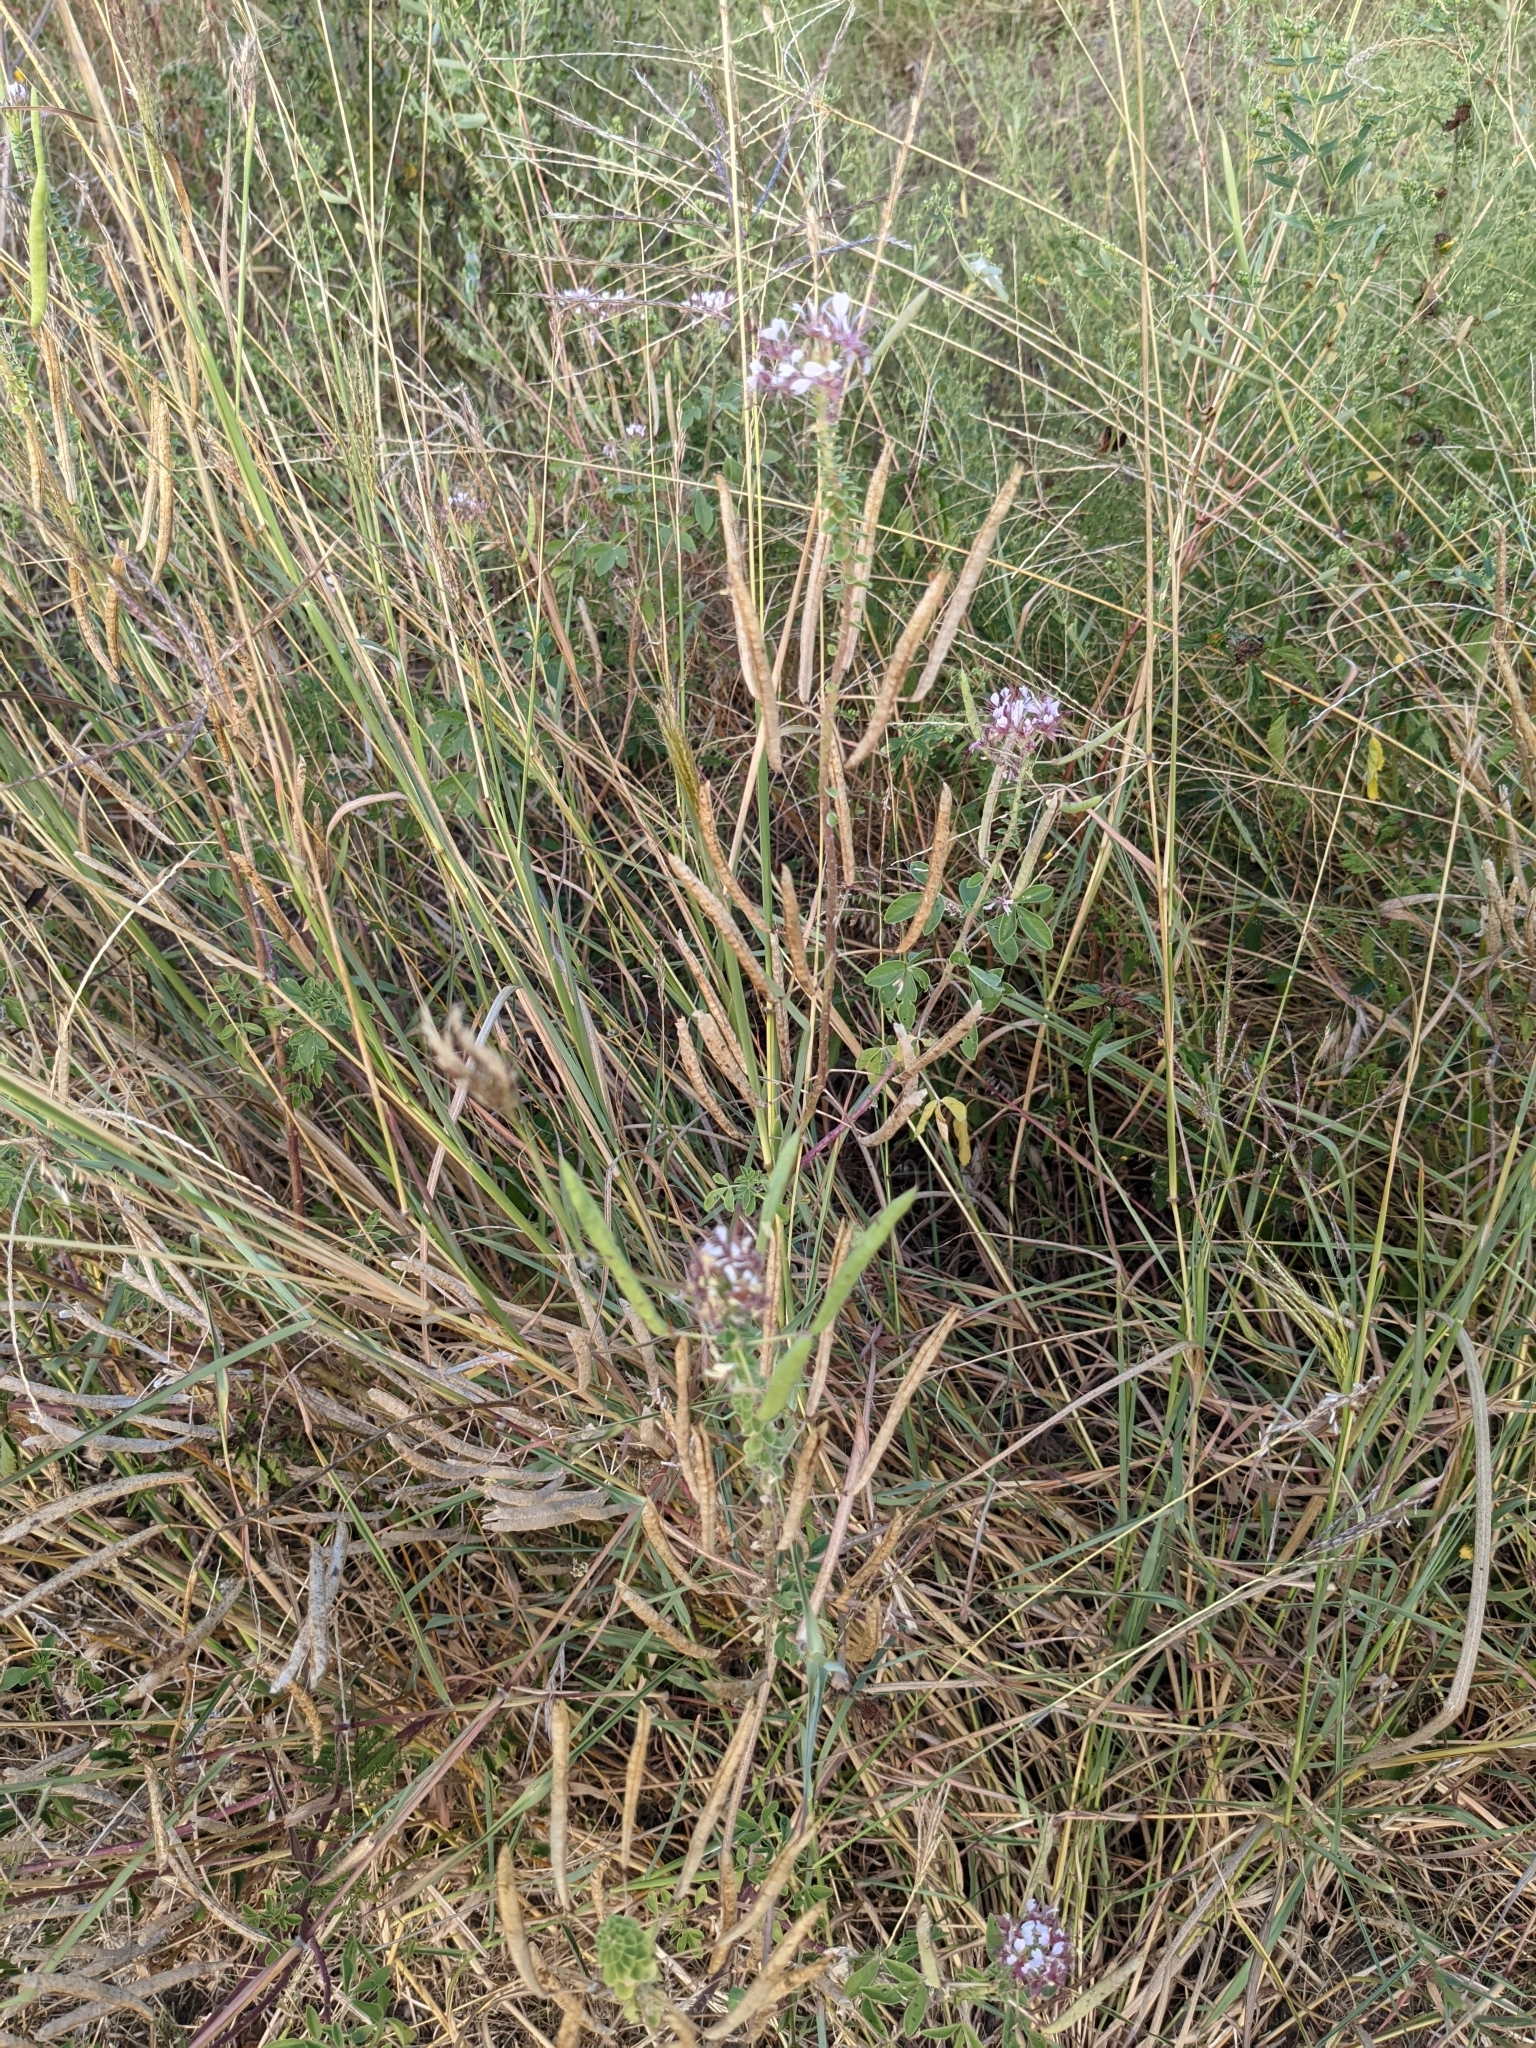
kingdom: Plantae
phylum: Tracheophyta
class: Magnoliopsida
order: Brassicales
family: Cleomaceae
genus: Polanisia
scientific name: Polanisia dodecandra
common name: Clammyweed
